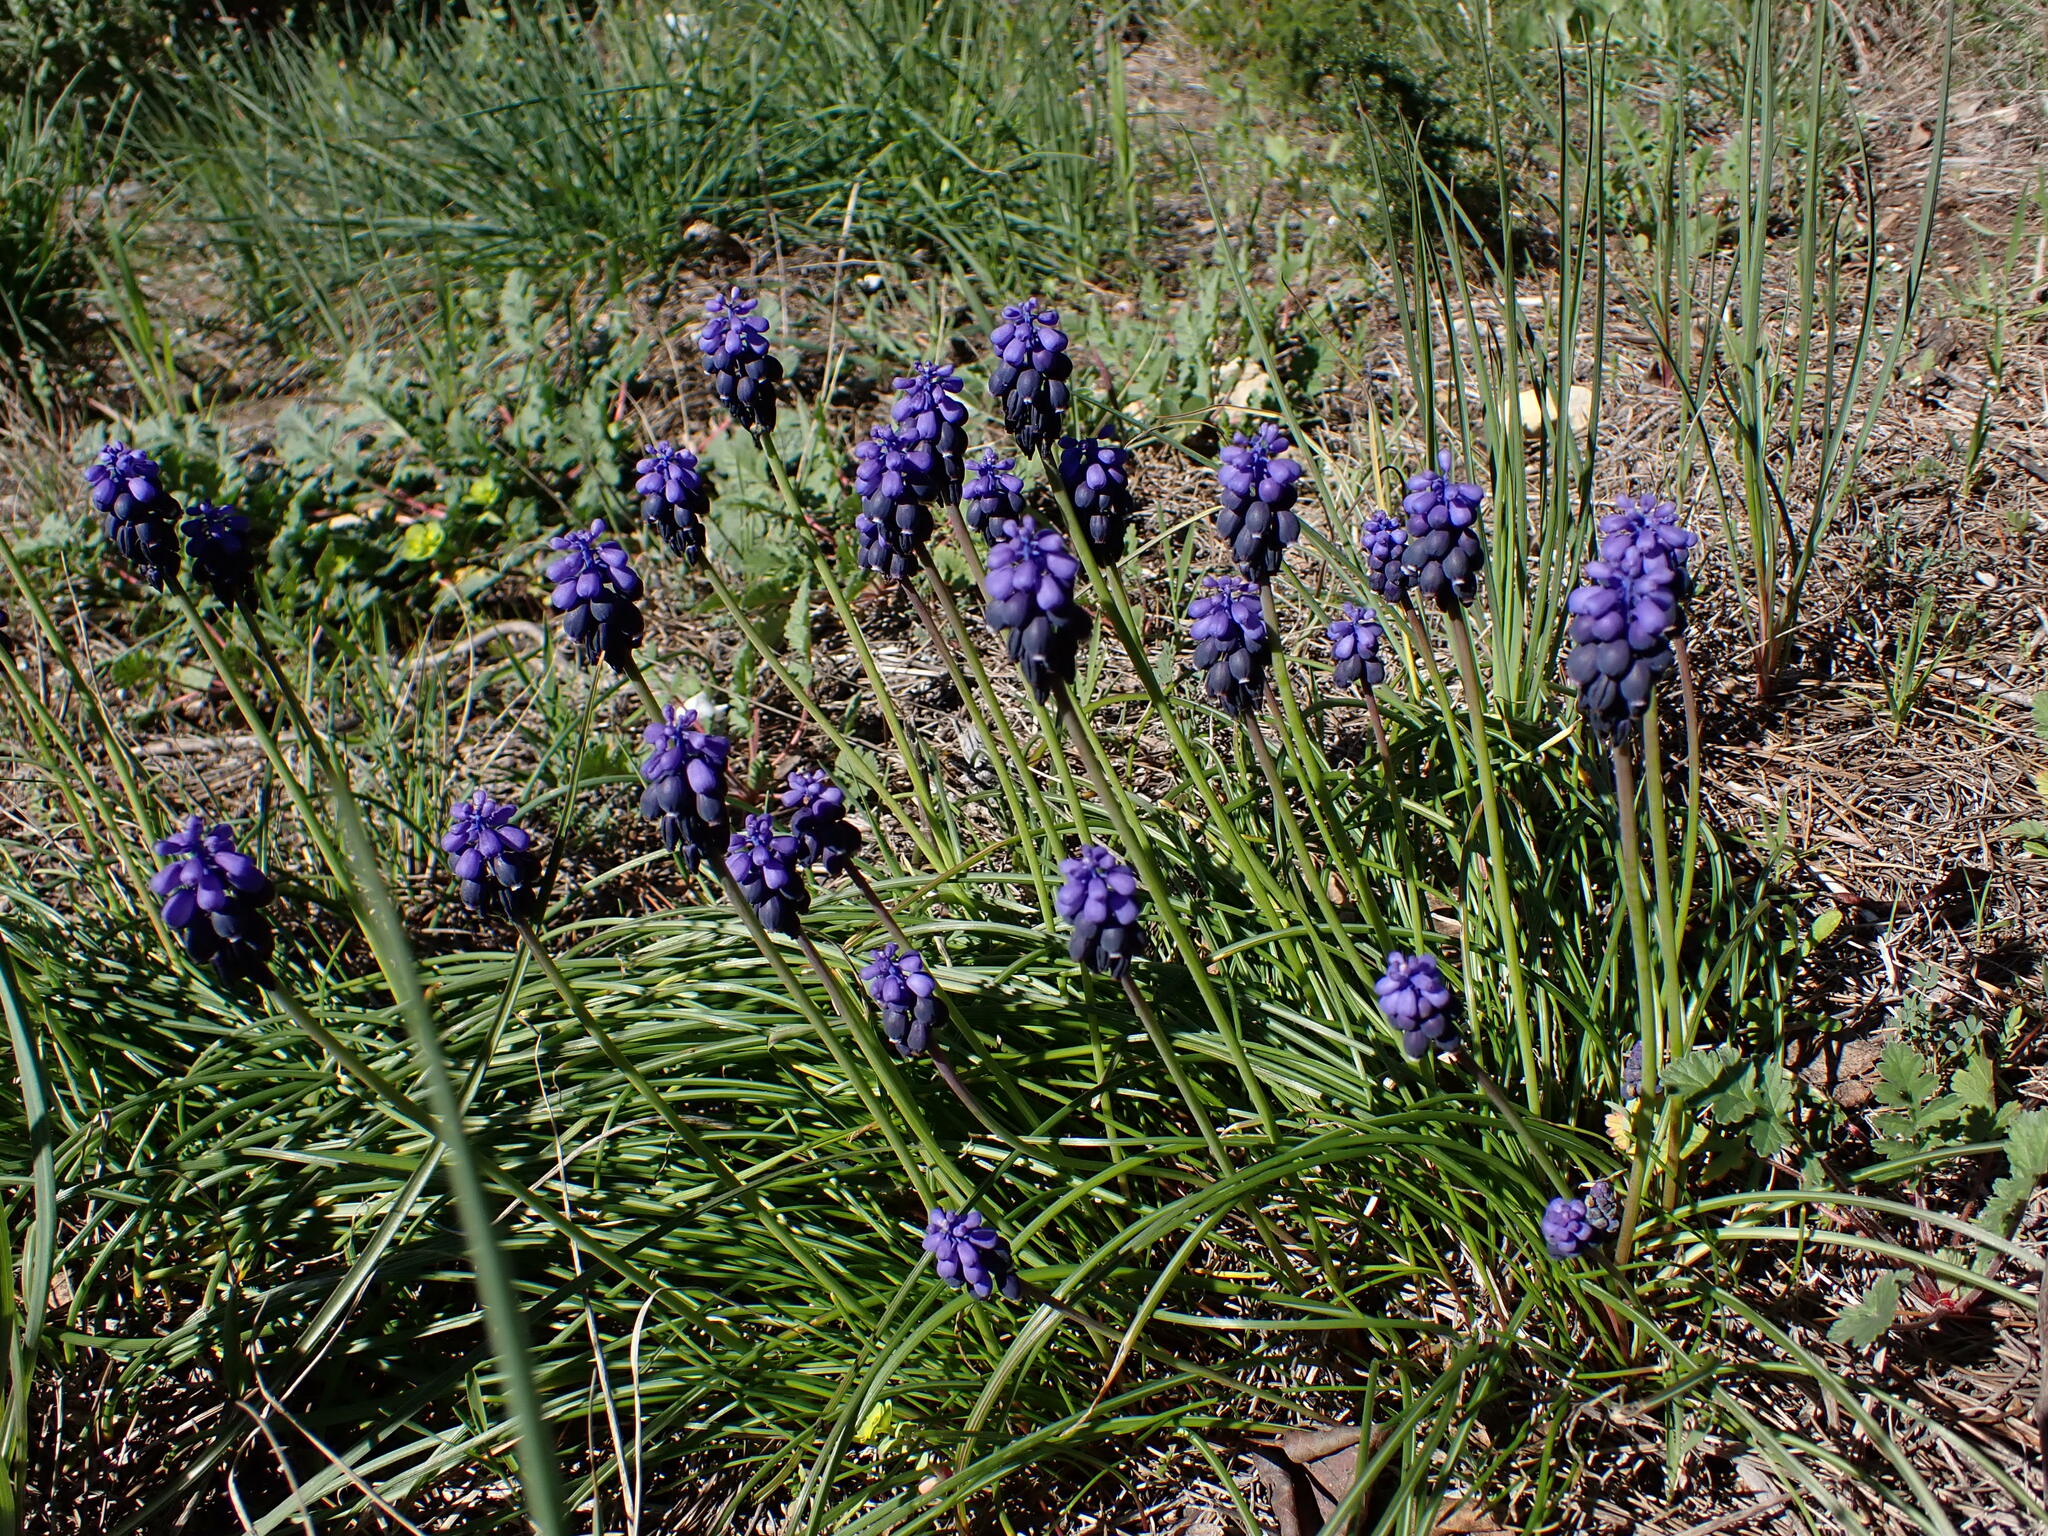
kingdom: Plantae
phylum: Tracheophyta
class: Liliopsida
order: Asparagales
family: Asparagaceae
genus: Muscari
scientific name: Muscari neglectum
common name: Grape-hyacinth
